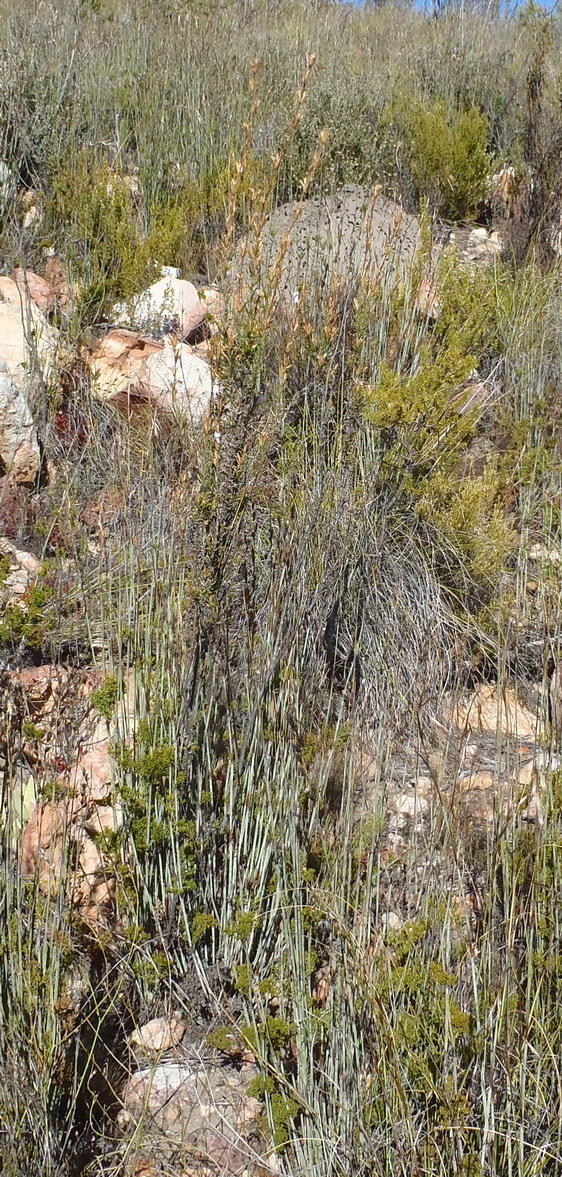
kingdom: Plantae
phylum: Tracheophyta
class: Magnoliopsida
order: Asterales
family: Campanulaceae
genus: Prismatocarpus
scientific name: Prismatocarpus candolleanus
